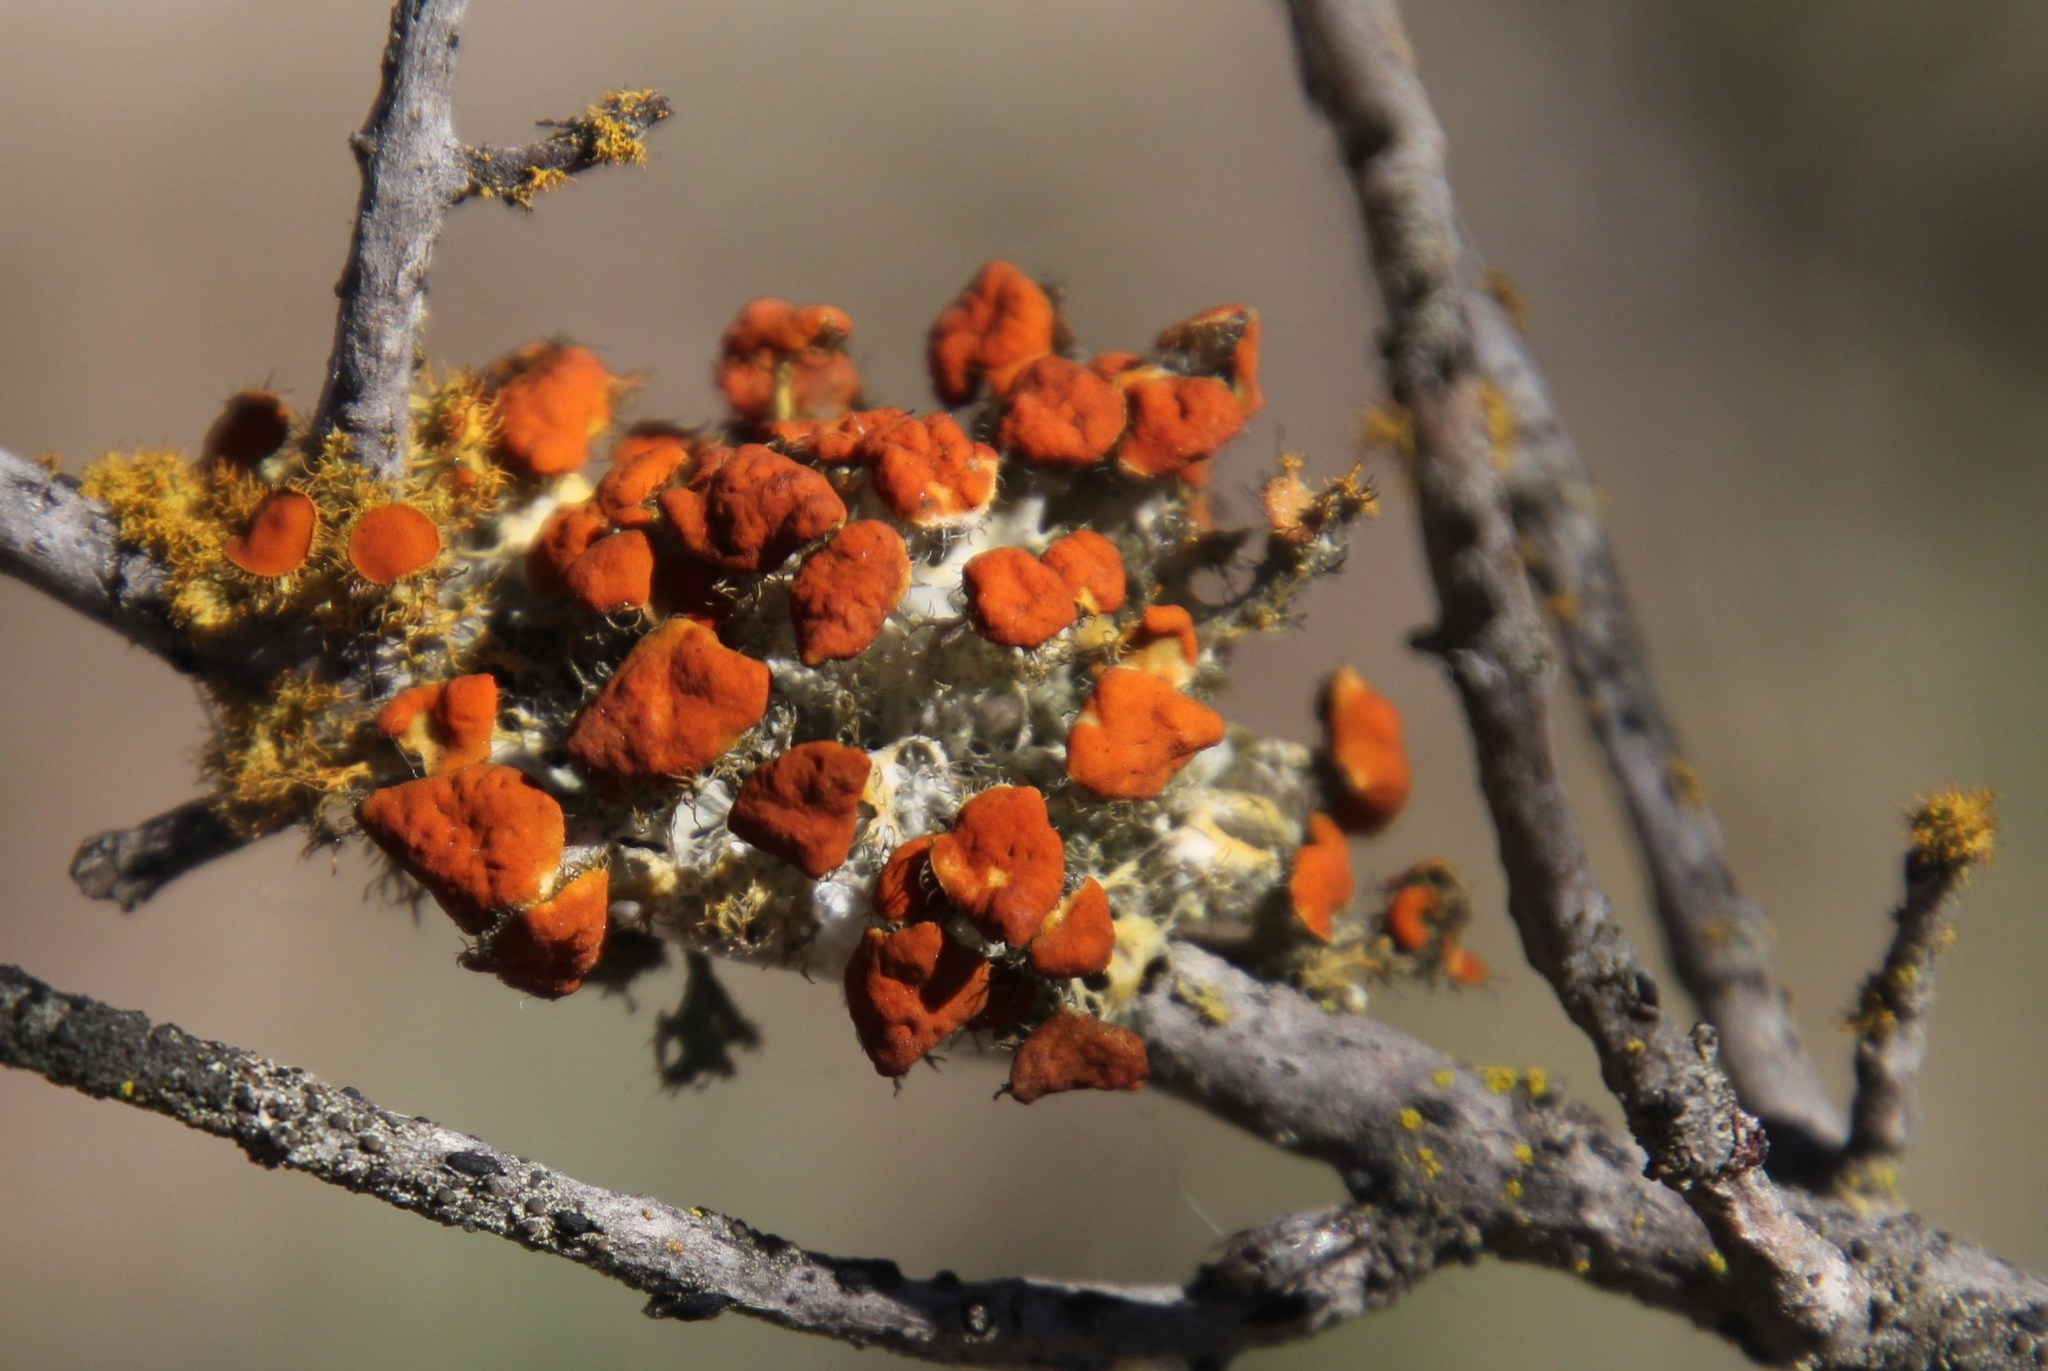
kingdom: Fungi
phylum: Ascomycota
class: Lecanoromycetes
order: Teloschistales
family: Teloschistaceae
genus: Niorma
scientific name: Niorma chrysophthalma
